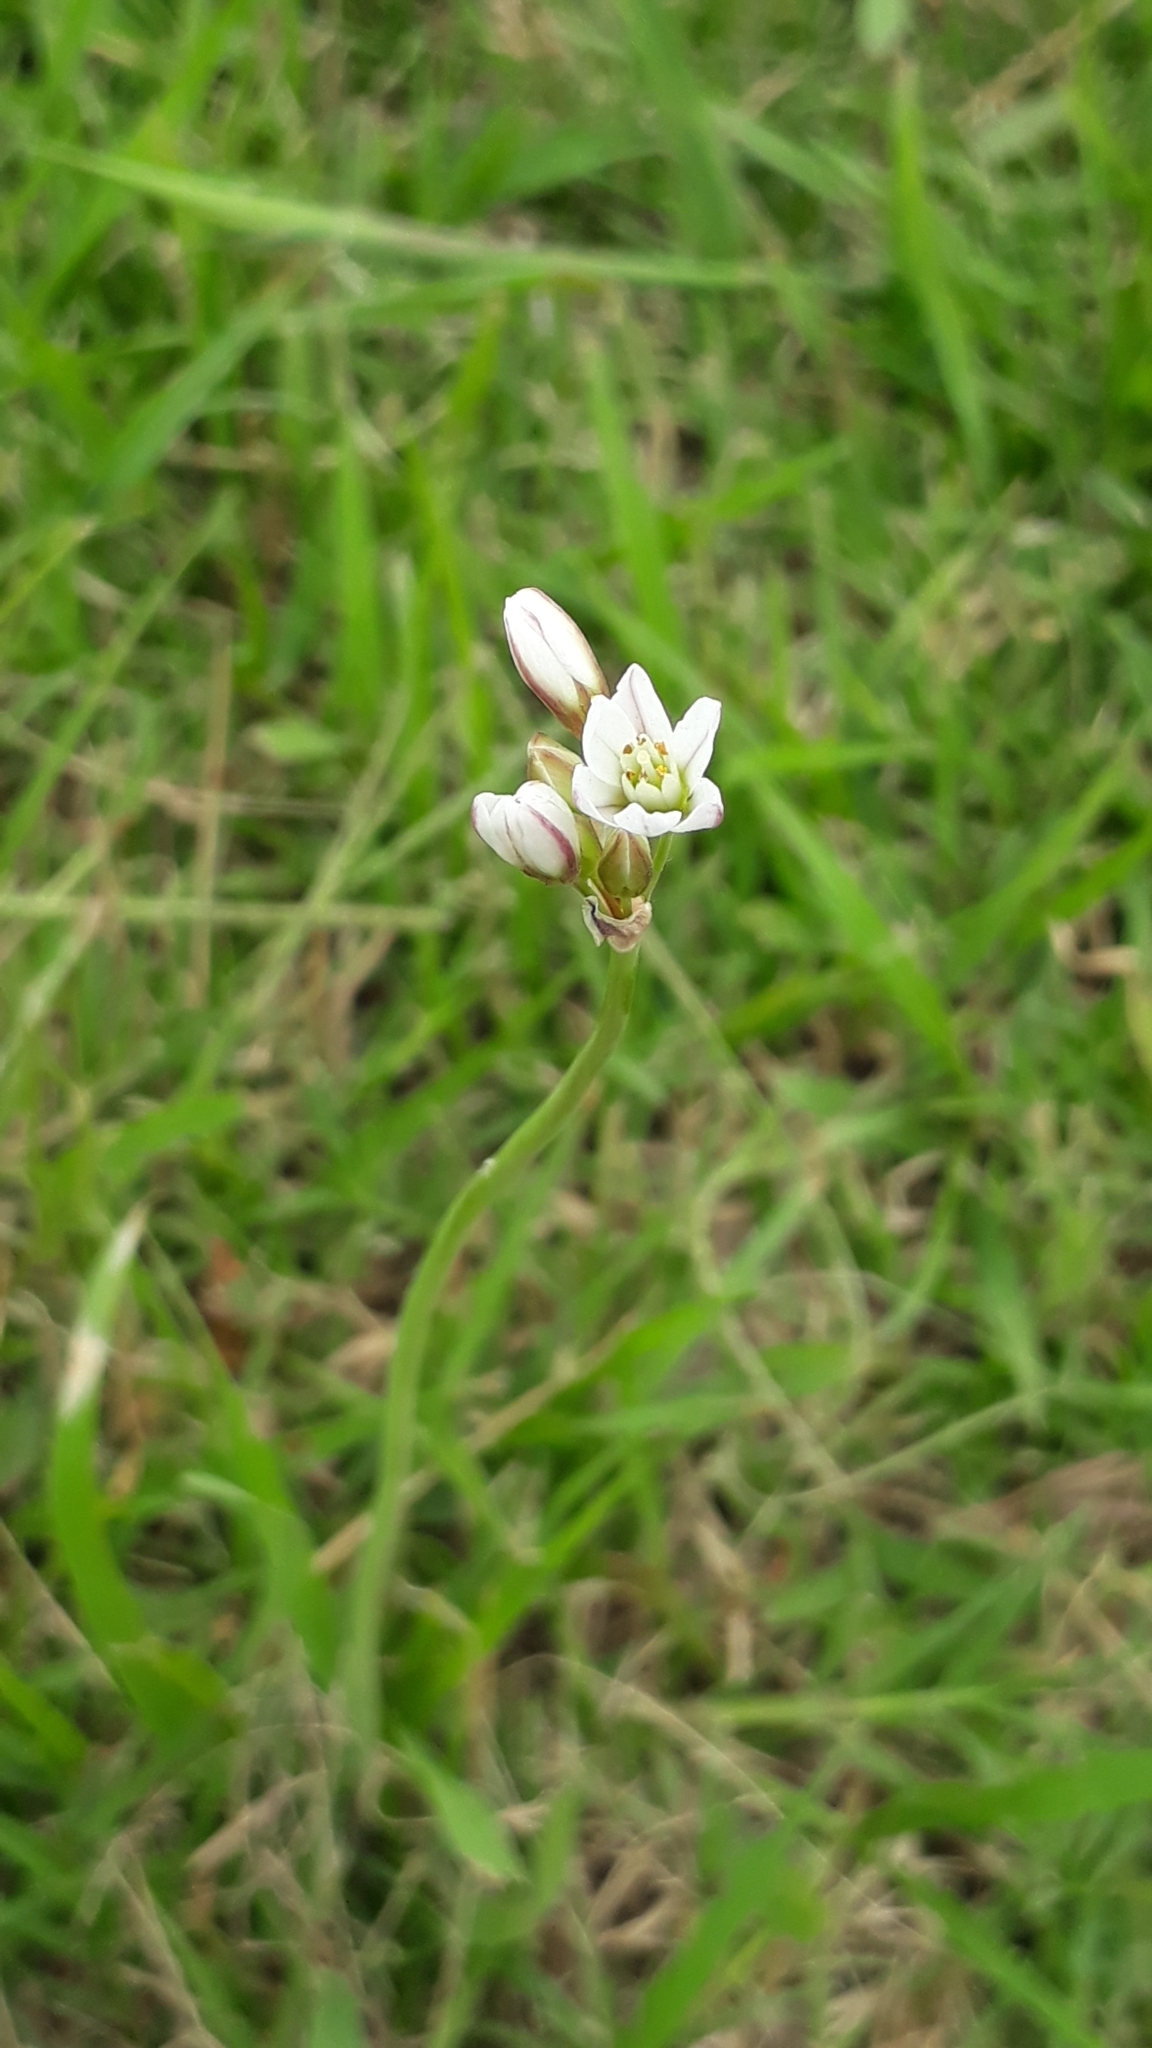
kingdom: Plantae
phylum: Tracheophyta
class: Liliopsida
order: Asparagales
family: Amaryllidaceae
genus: Nothoscordum
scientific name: Nothoscordum gracile
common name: Slender false garlic
